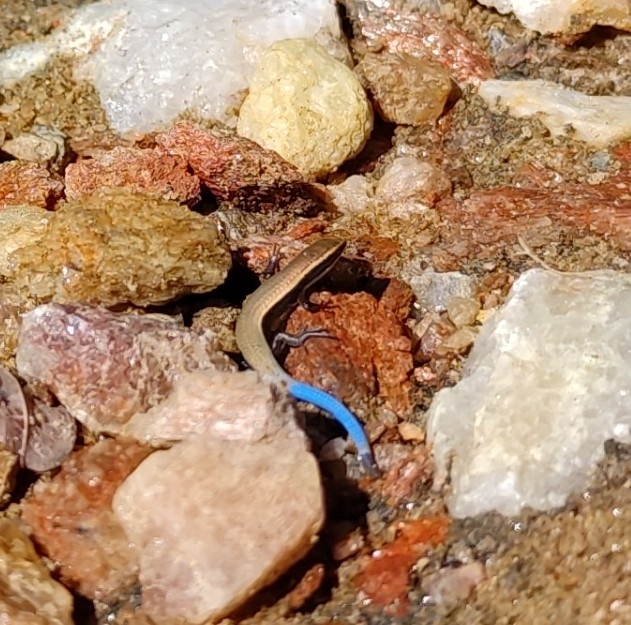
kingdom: Animalia
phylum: Chordata
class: Squamata
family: Gymnophthalmidae
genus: Micrablepharus
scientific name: Micrablepharus maximiliani
